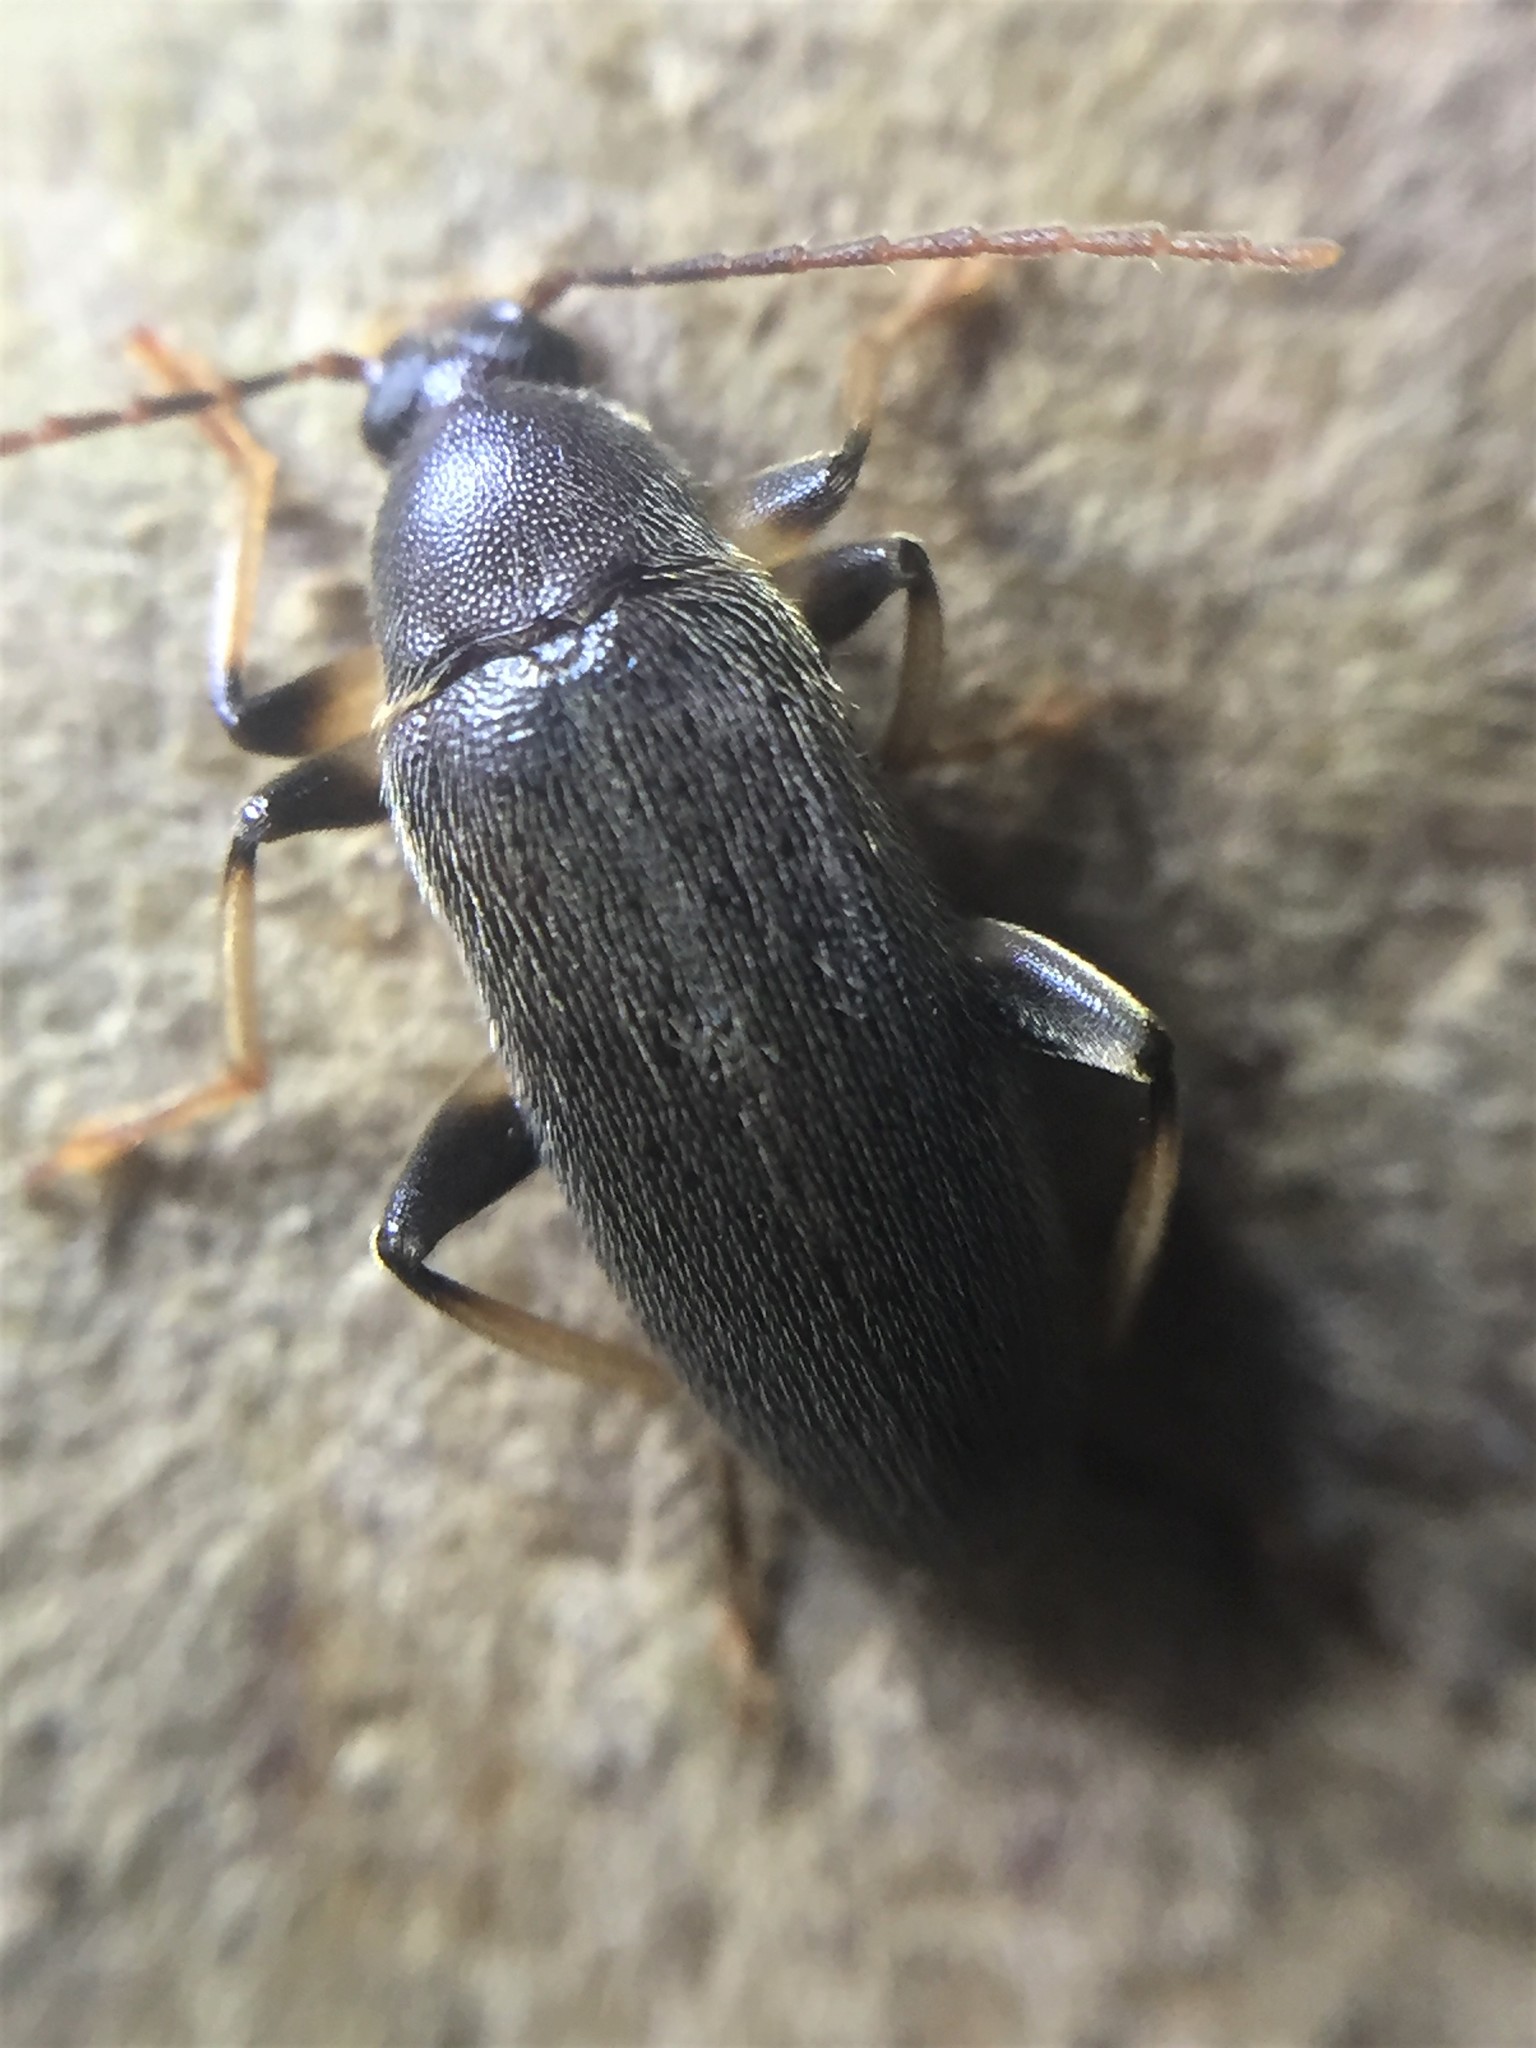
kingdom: Animalia
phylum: Arthropoda
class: Insecta
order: Coleoptera
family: Tenebrionidae
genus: Homotrysis
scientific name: Homotrysis
